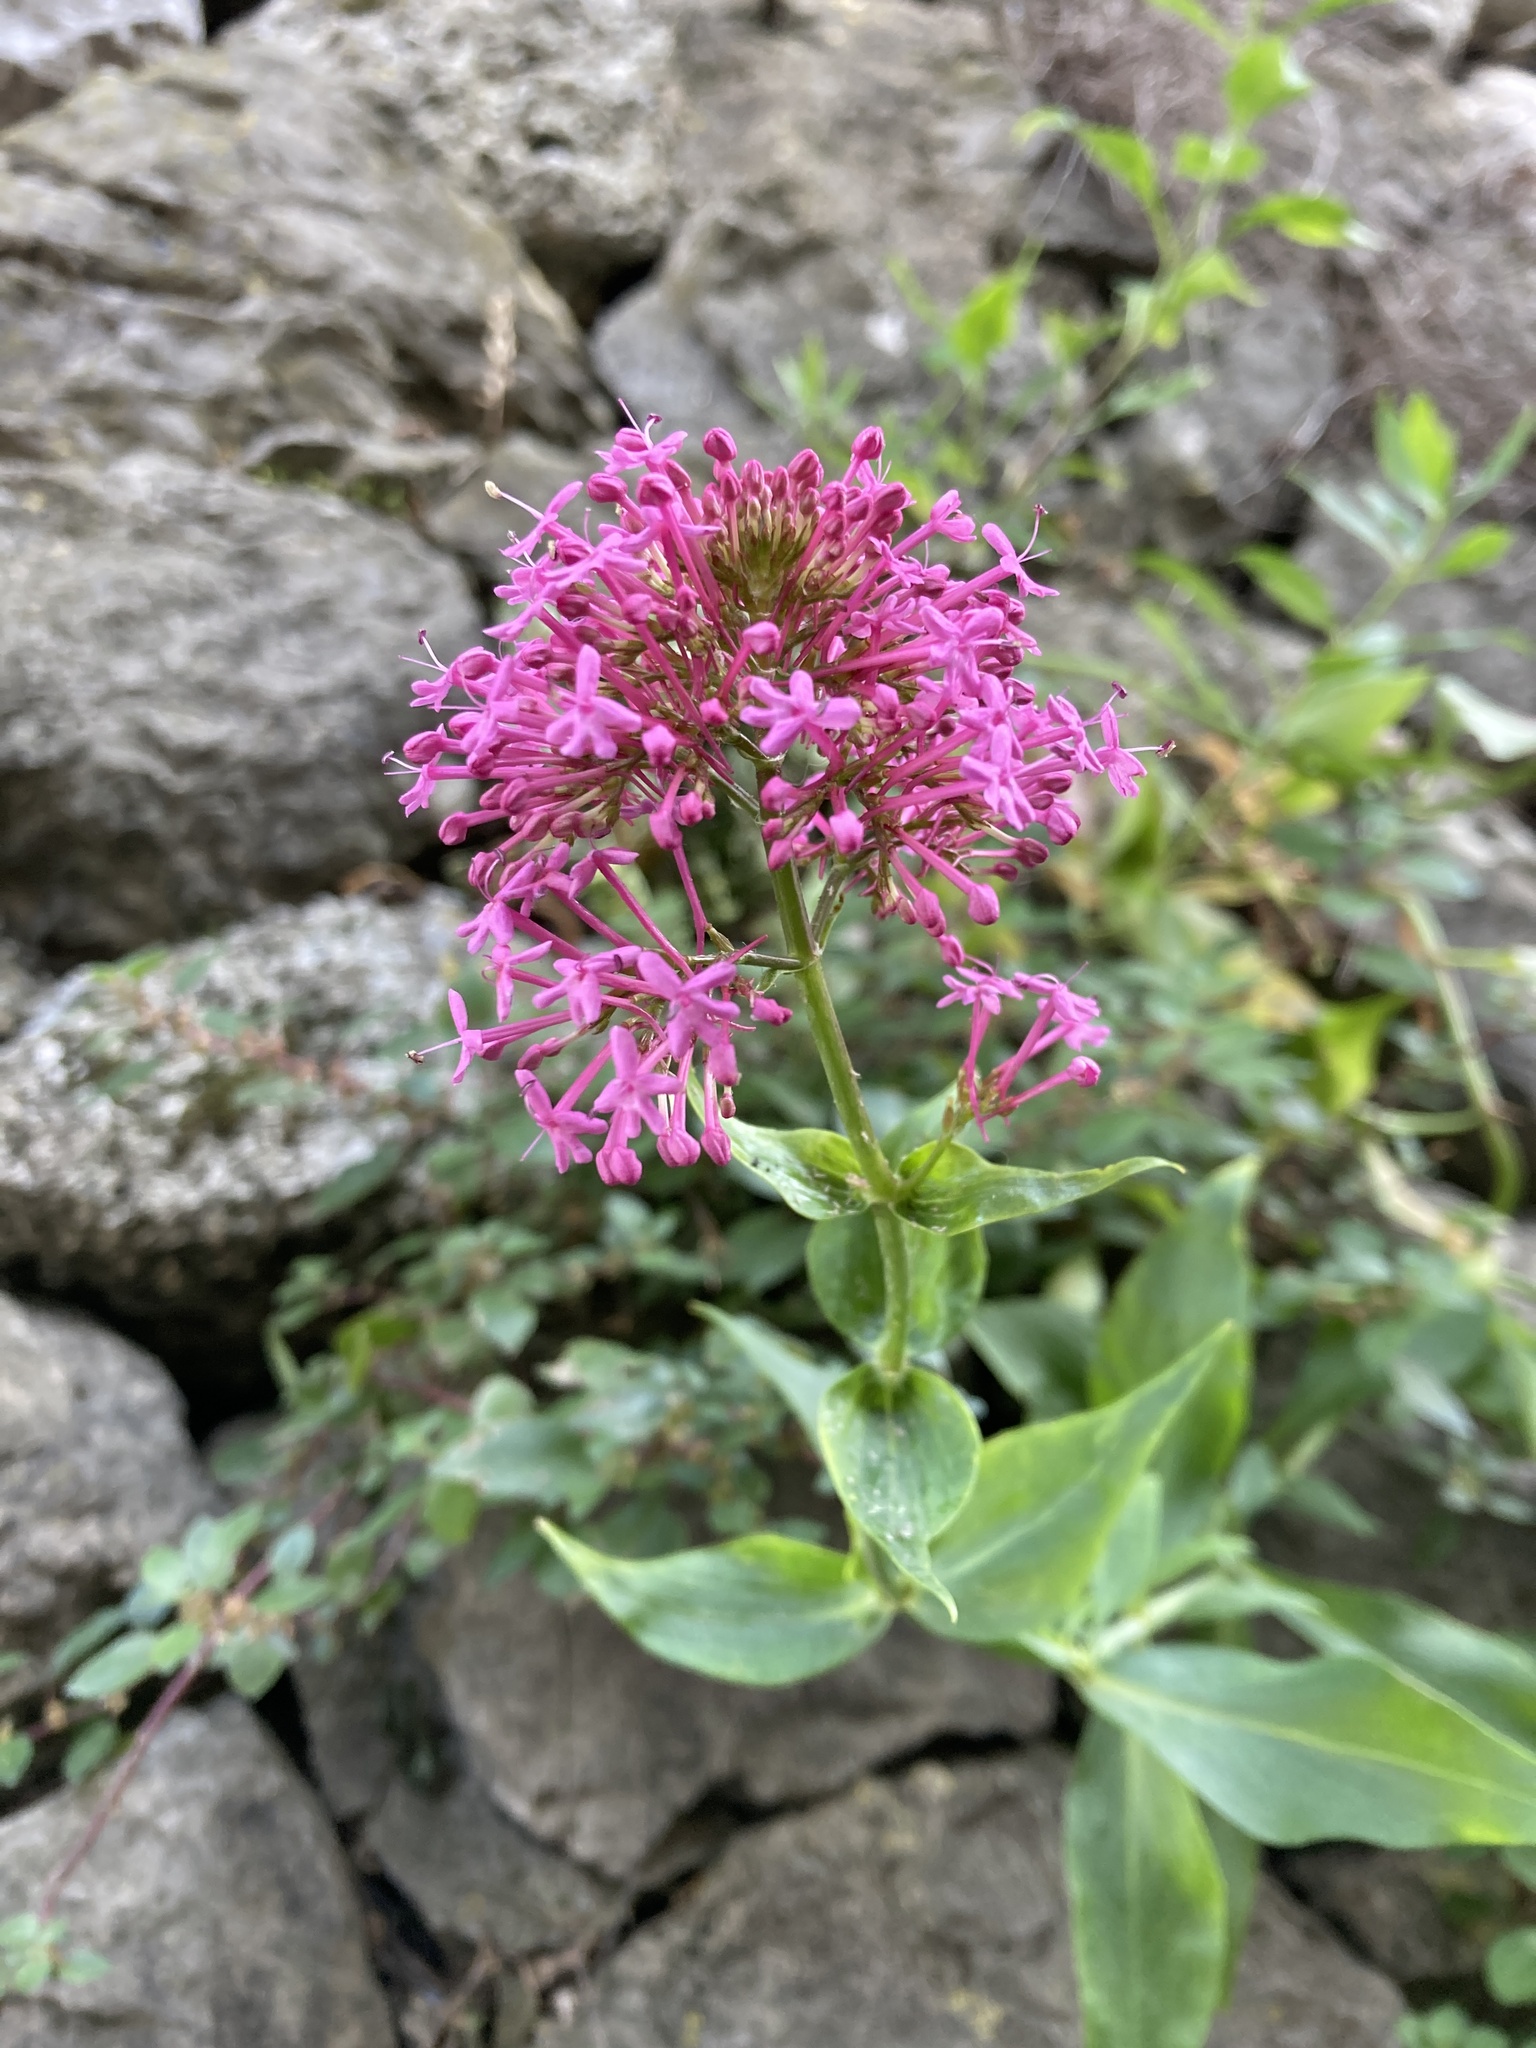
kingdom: Plantae
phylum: Tracheophyta
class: Magnoliopsida
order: Dipsacales
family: Caprifoliaceae
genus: Centranthus
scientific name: Centranthus ruber
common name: Red valerian
